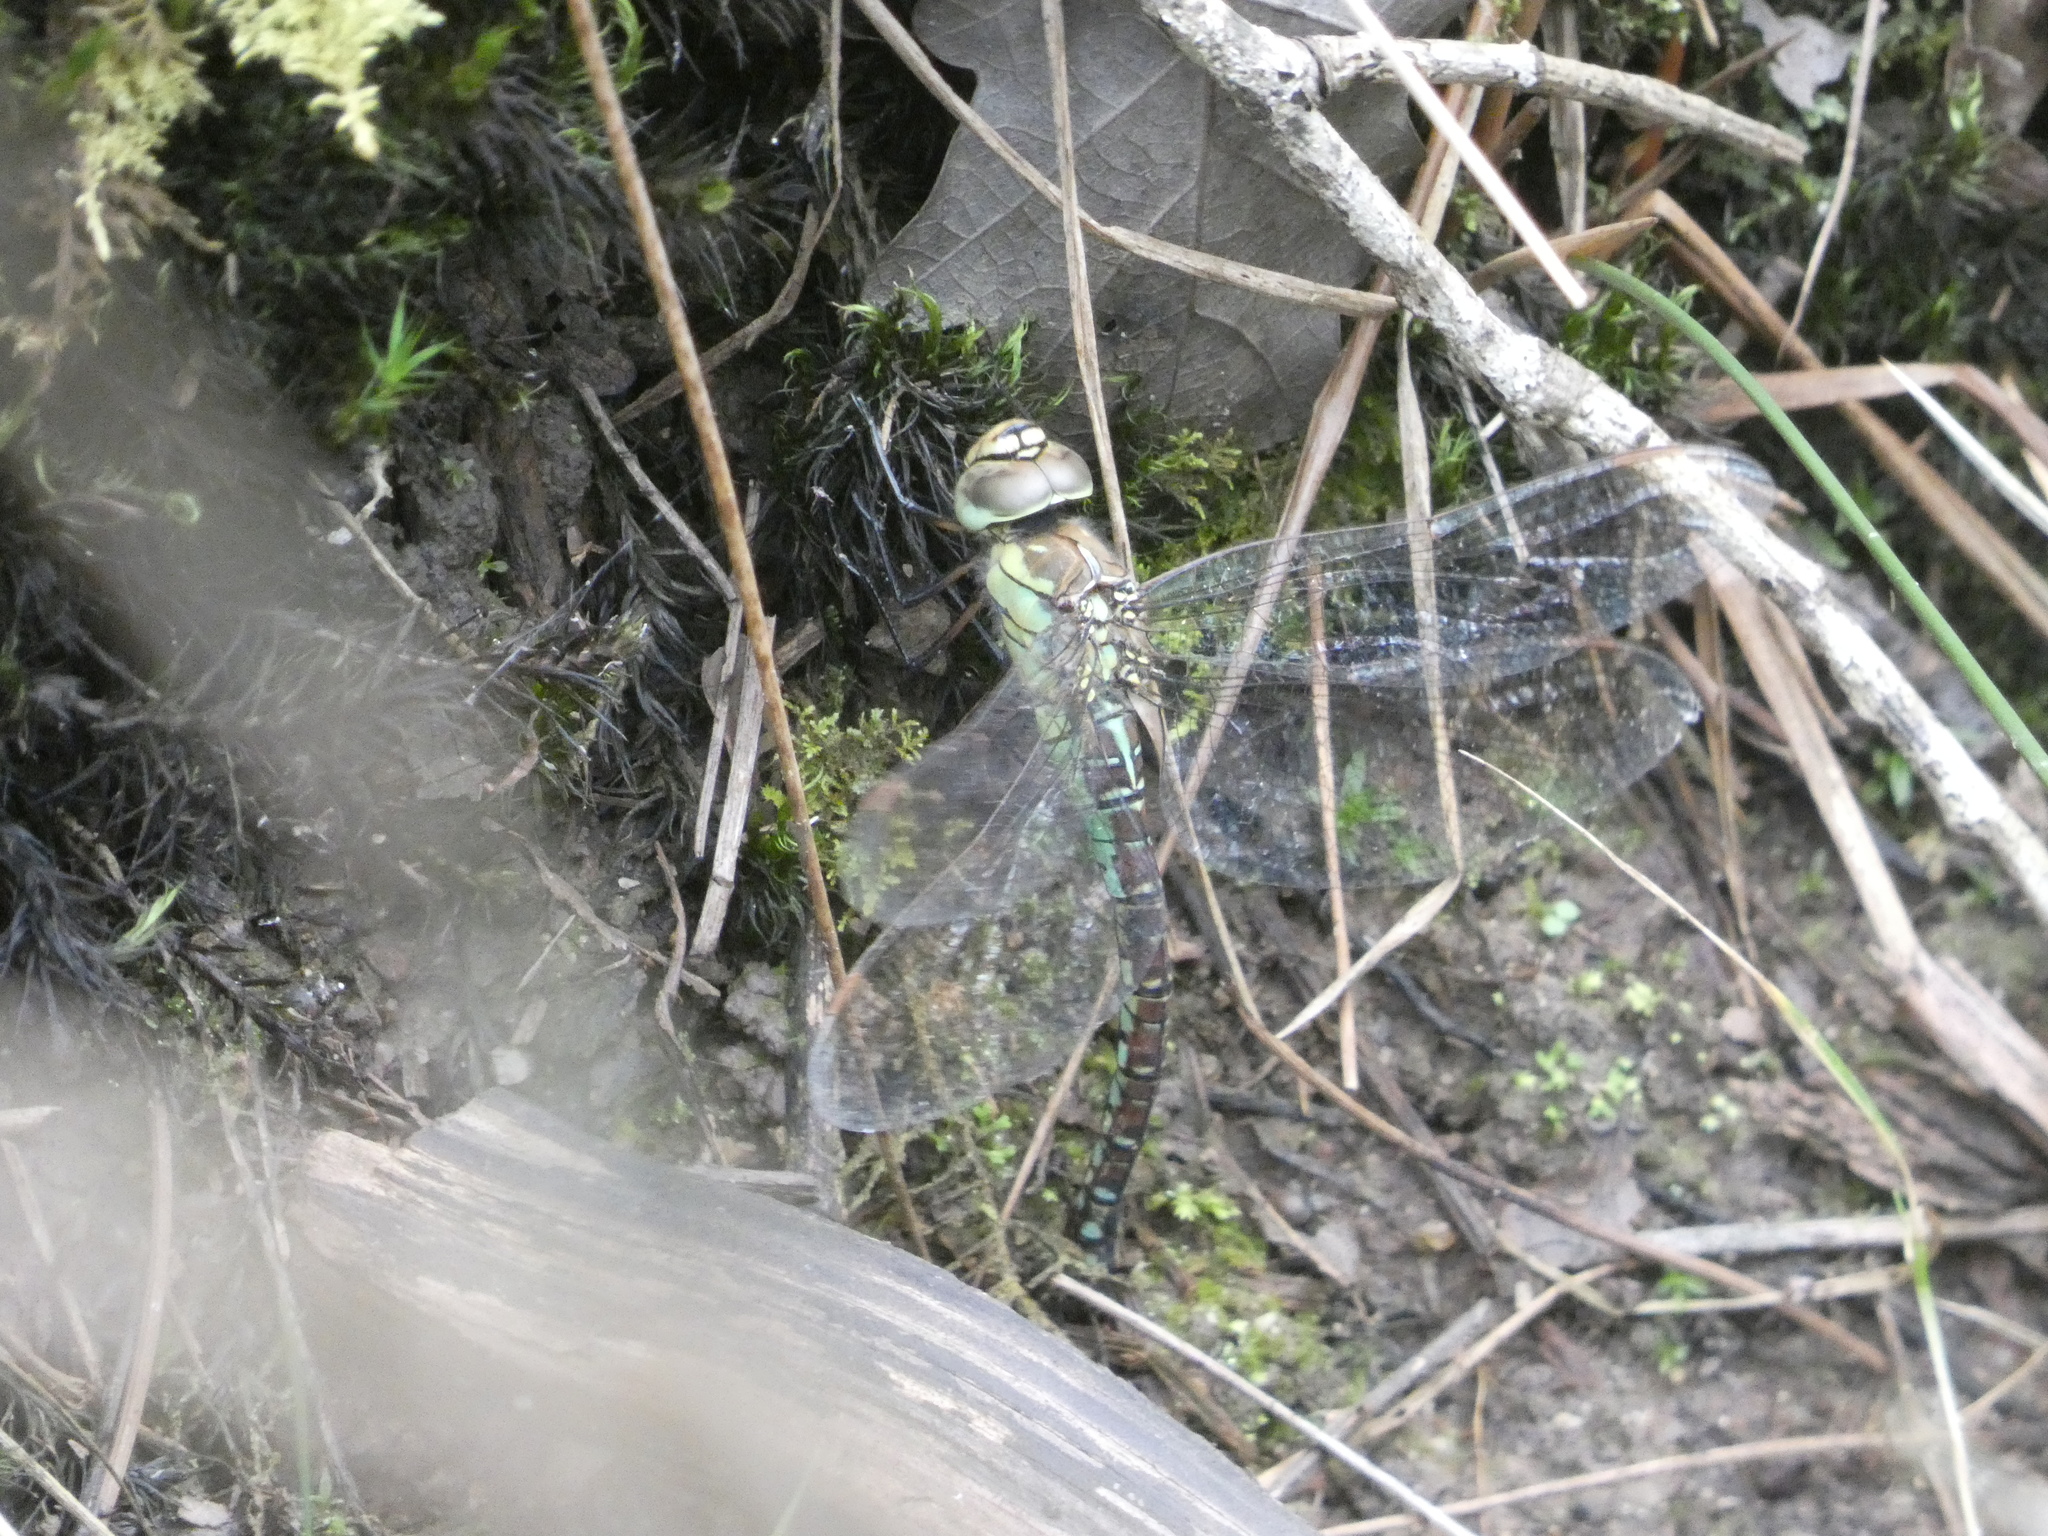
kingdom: Animalia
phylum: Arthropoda
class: Insecta
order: Odonata
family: Aeshnidae
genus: Aeshna
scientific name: Aeshna affinis
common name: Southern migrant hawker
